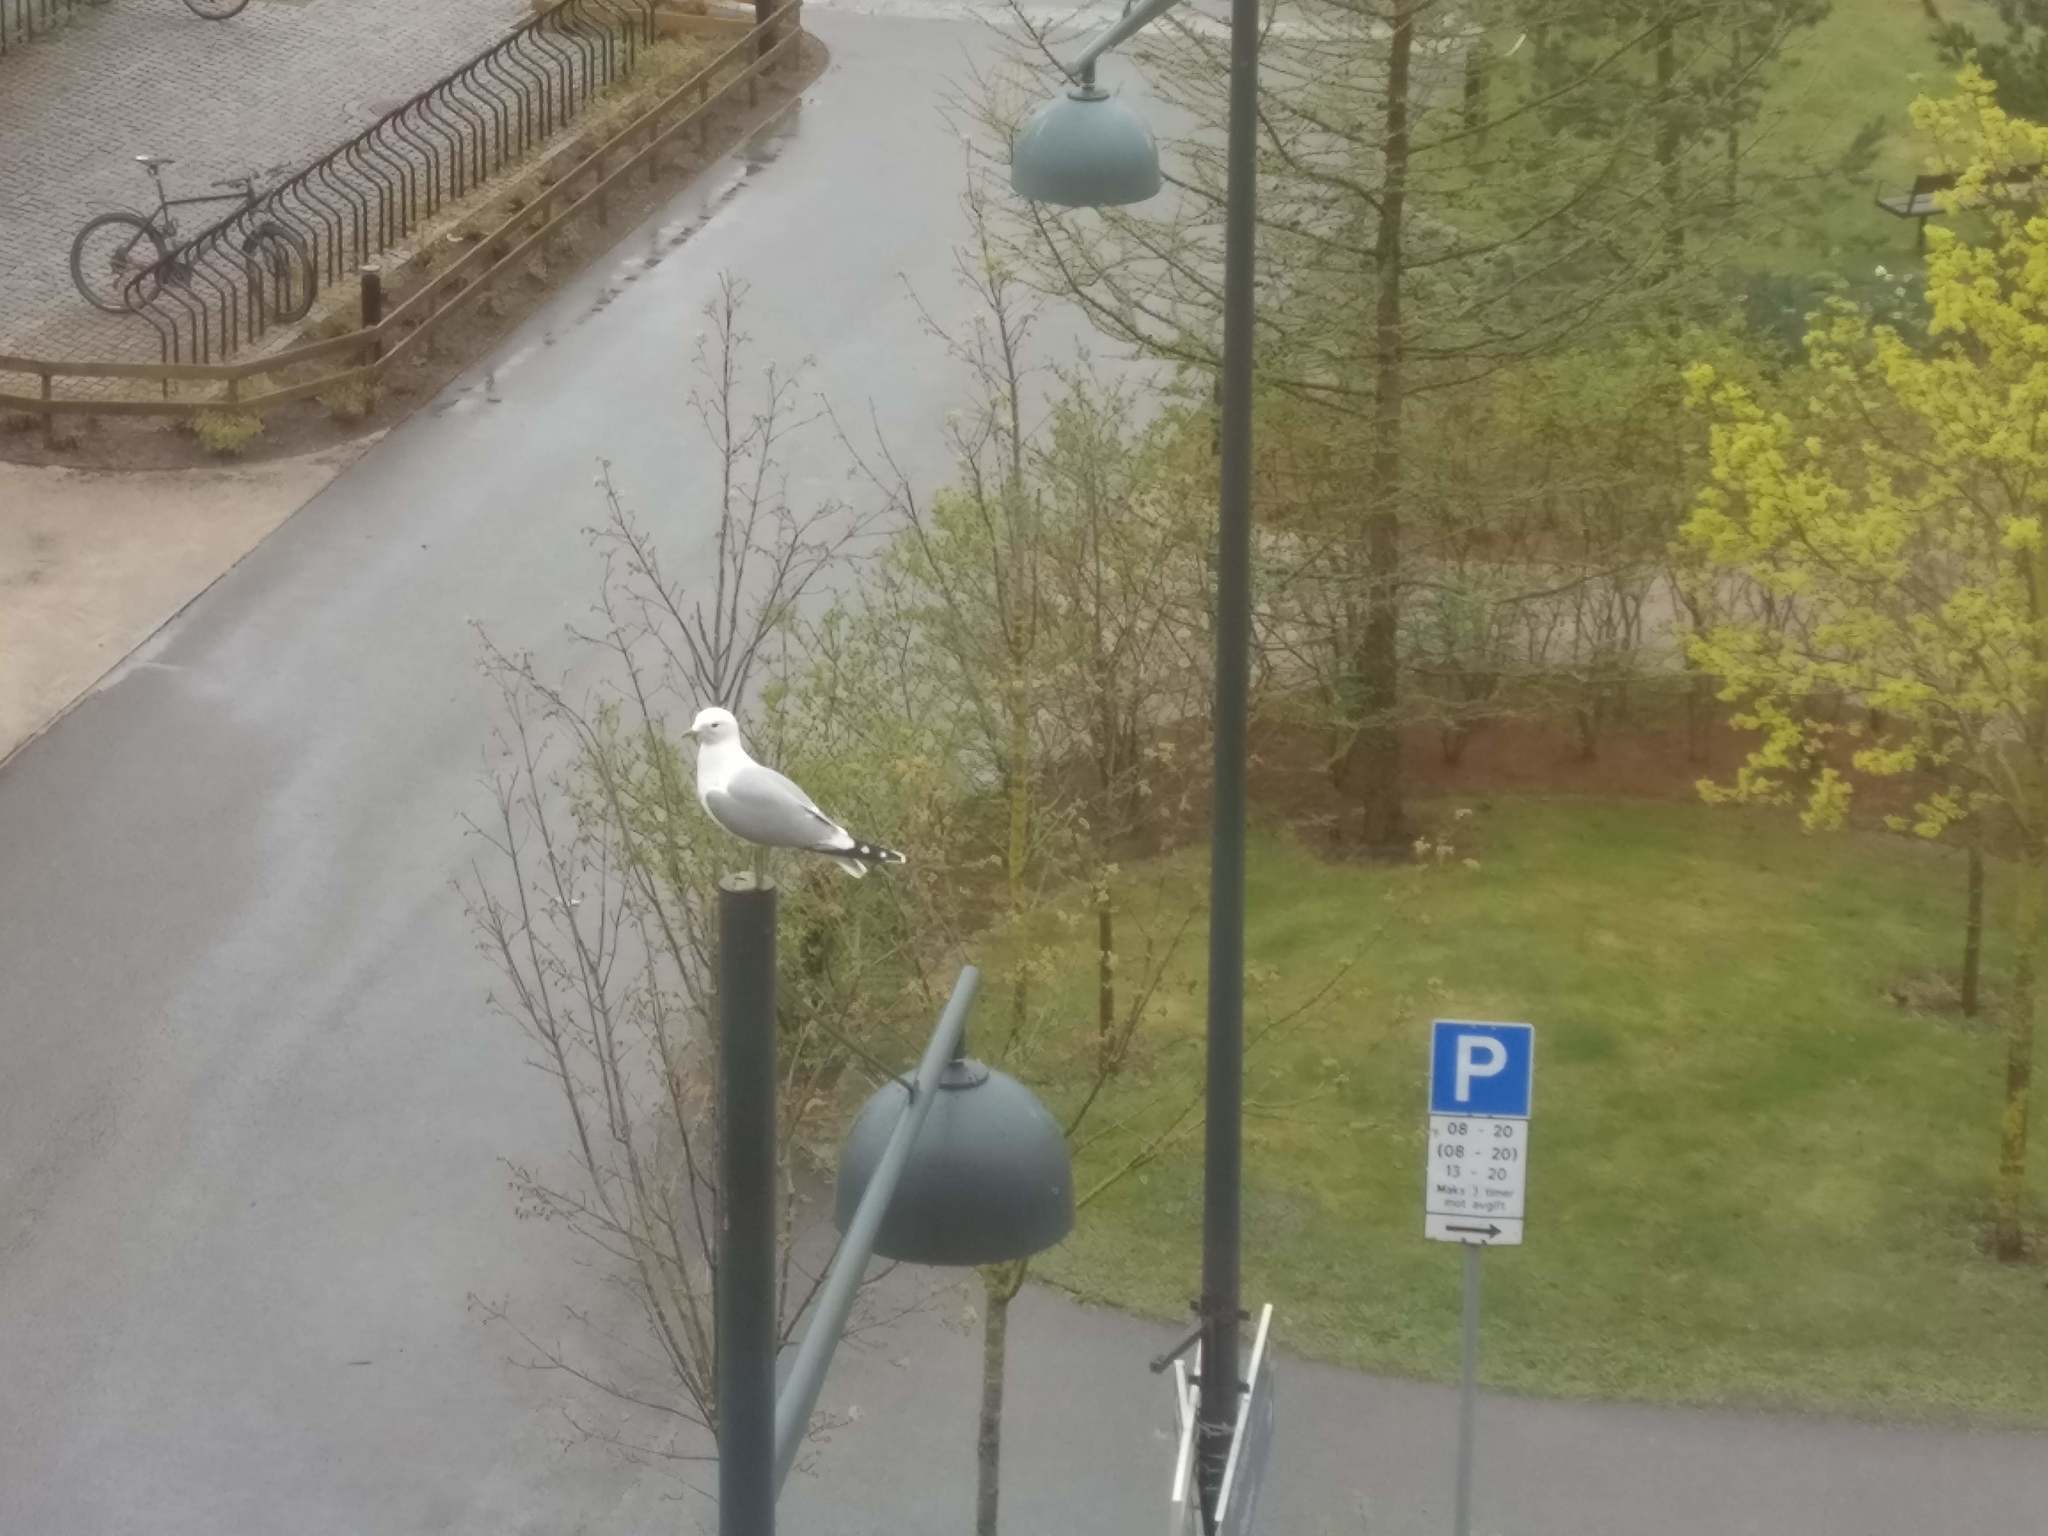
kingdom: Animalia
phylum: Chordata
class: Aves
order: Charadriiformes
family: Laridae
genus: Larus
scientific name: Larus canus
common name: Mew gull
